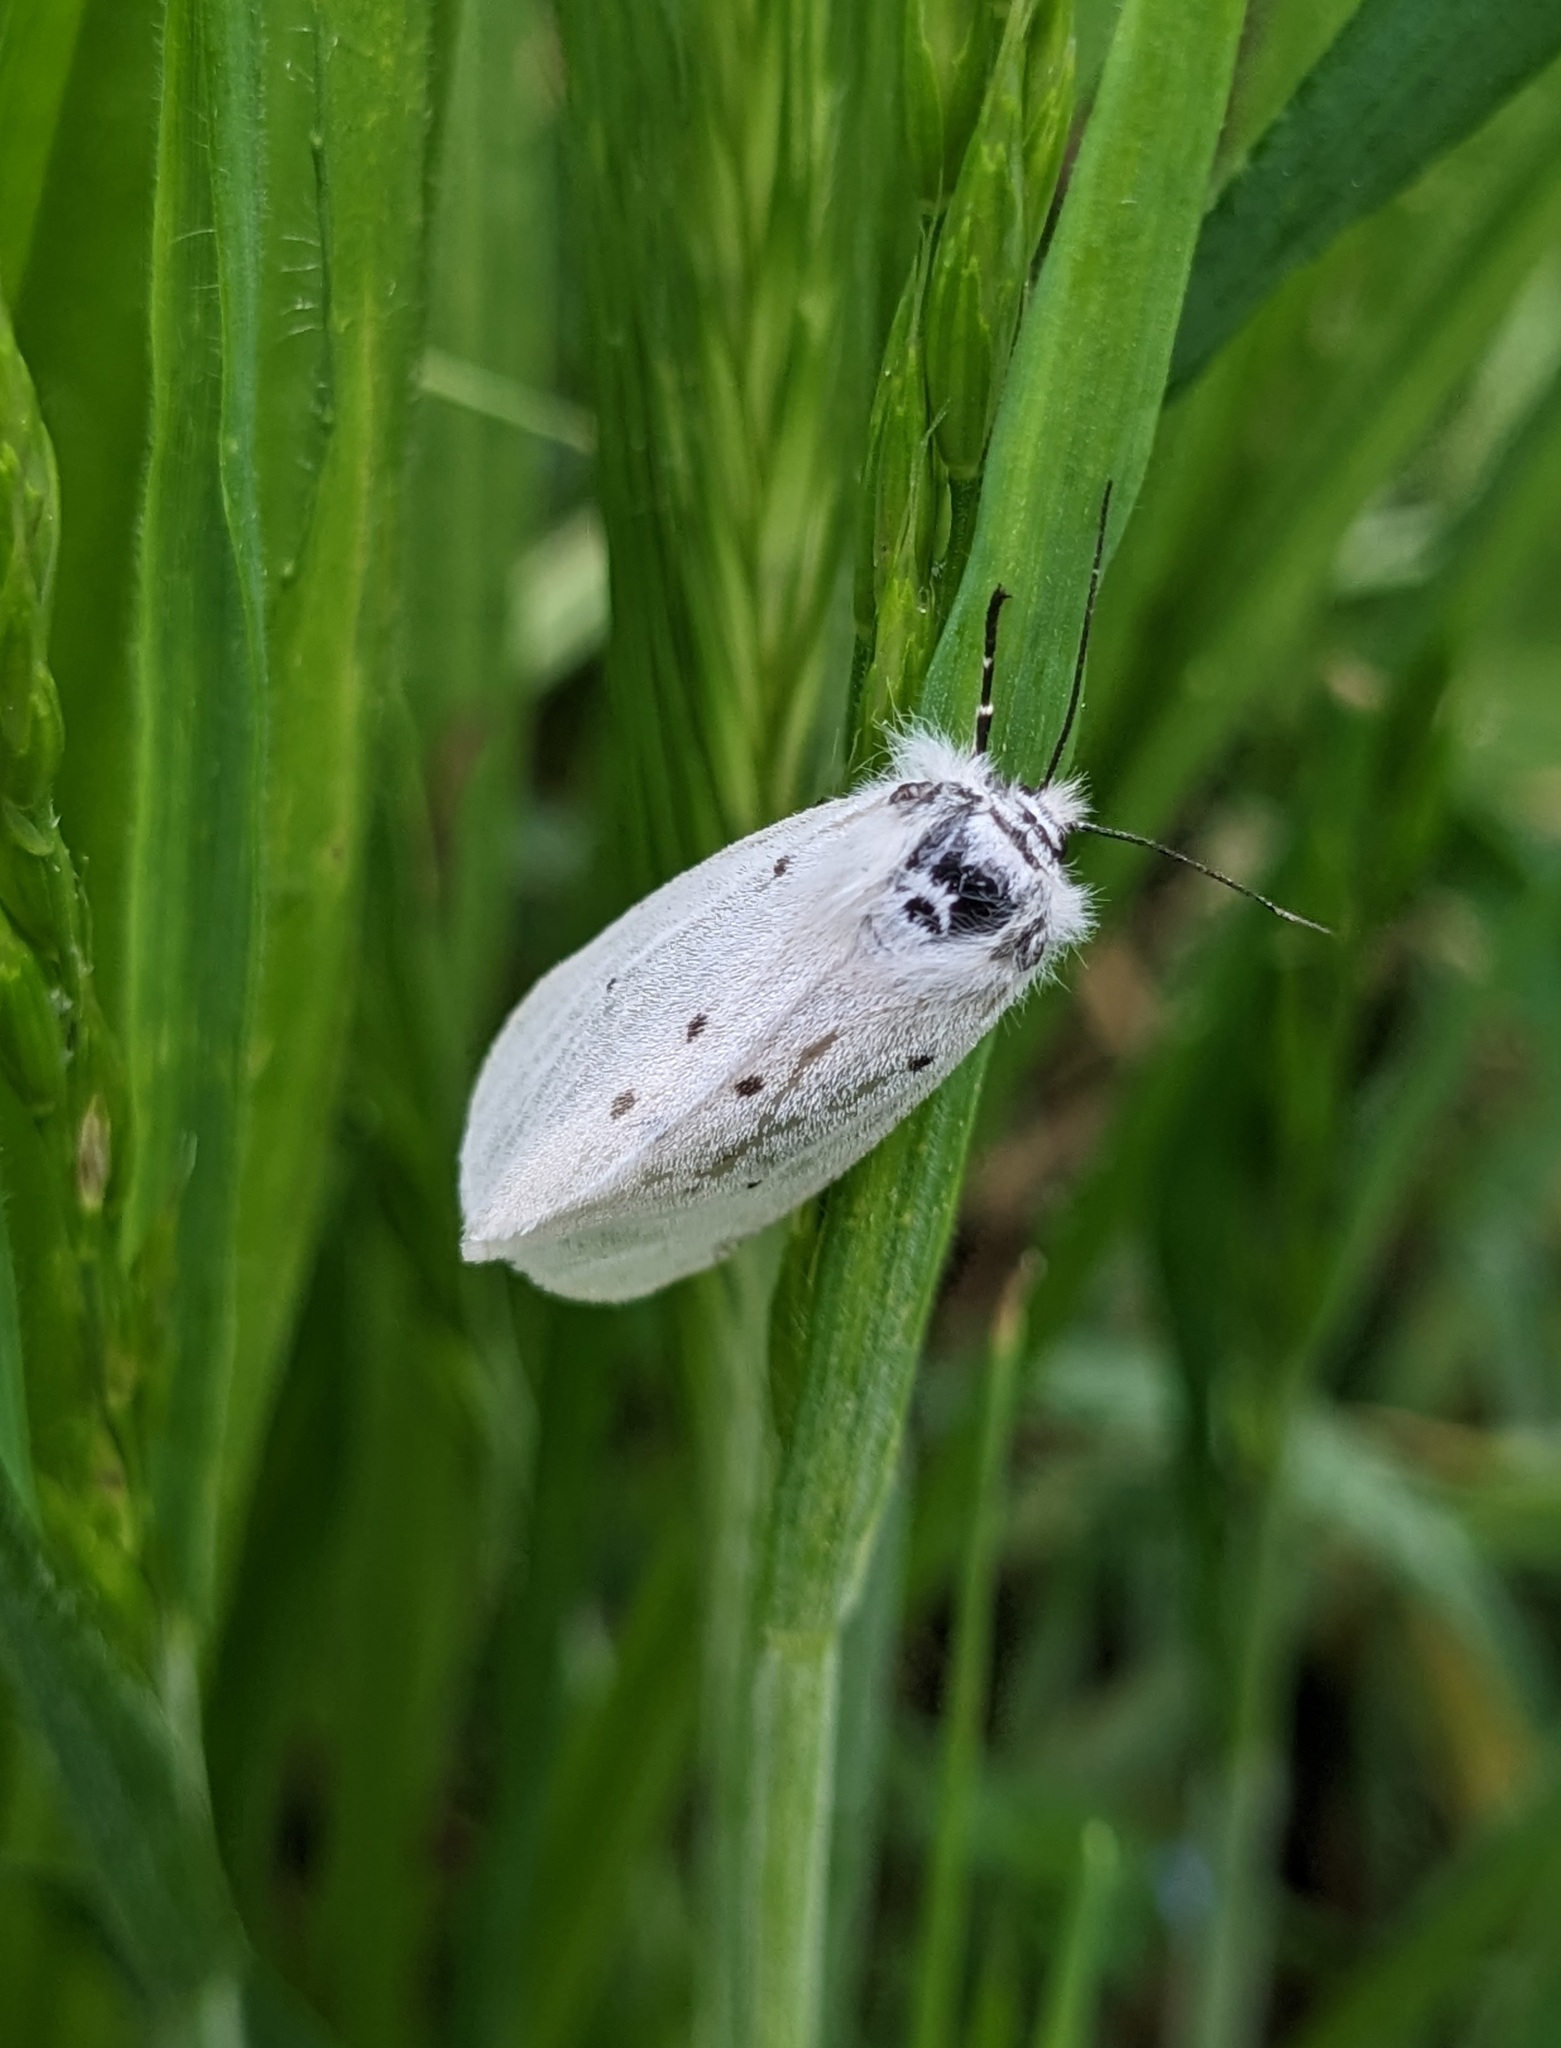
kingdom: Animalia
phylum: Arthropoda
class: Insecta
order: Lepidoptera
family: Erebidae
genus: Diaphora
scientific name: Diaphora mendica
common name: Muslin moth
